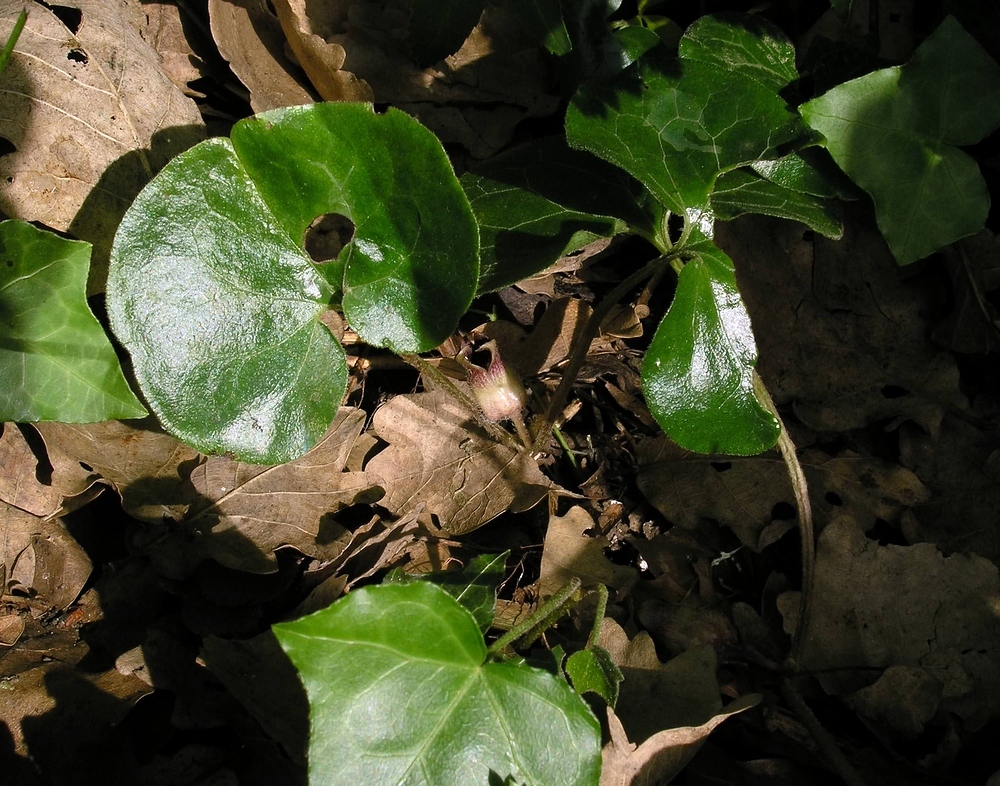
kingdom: Plantae
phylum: Tracheophyta
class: Magnoliopsida
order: Piperales
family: Aristolochiaceae
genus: Asarum
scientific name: Asarum europaeum
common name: Asarabacca
